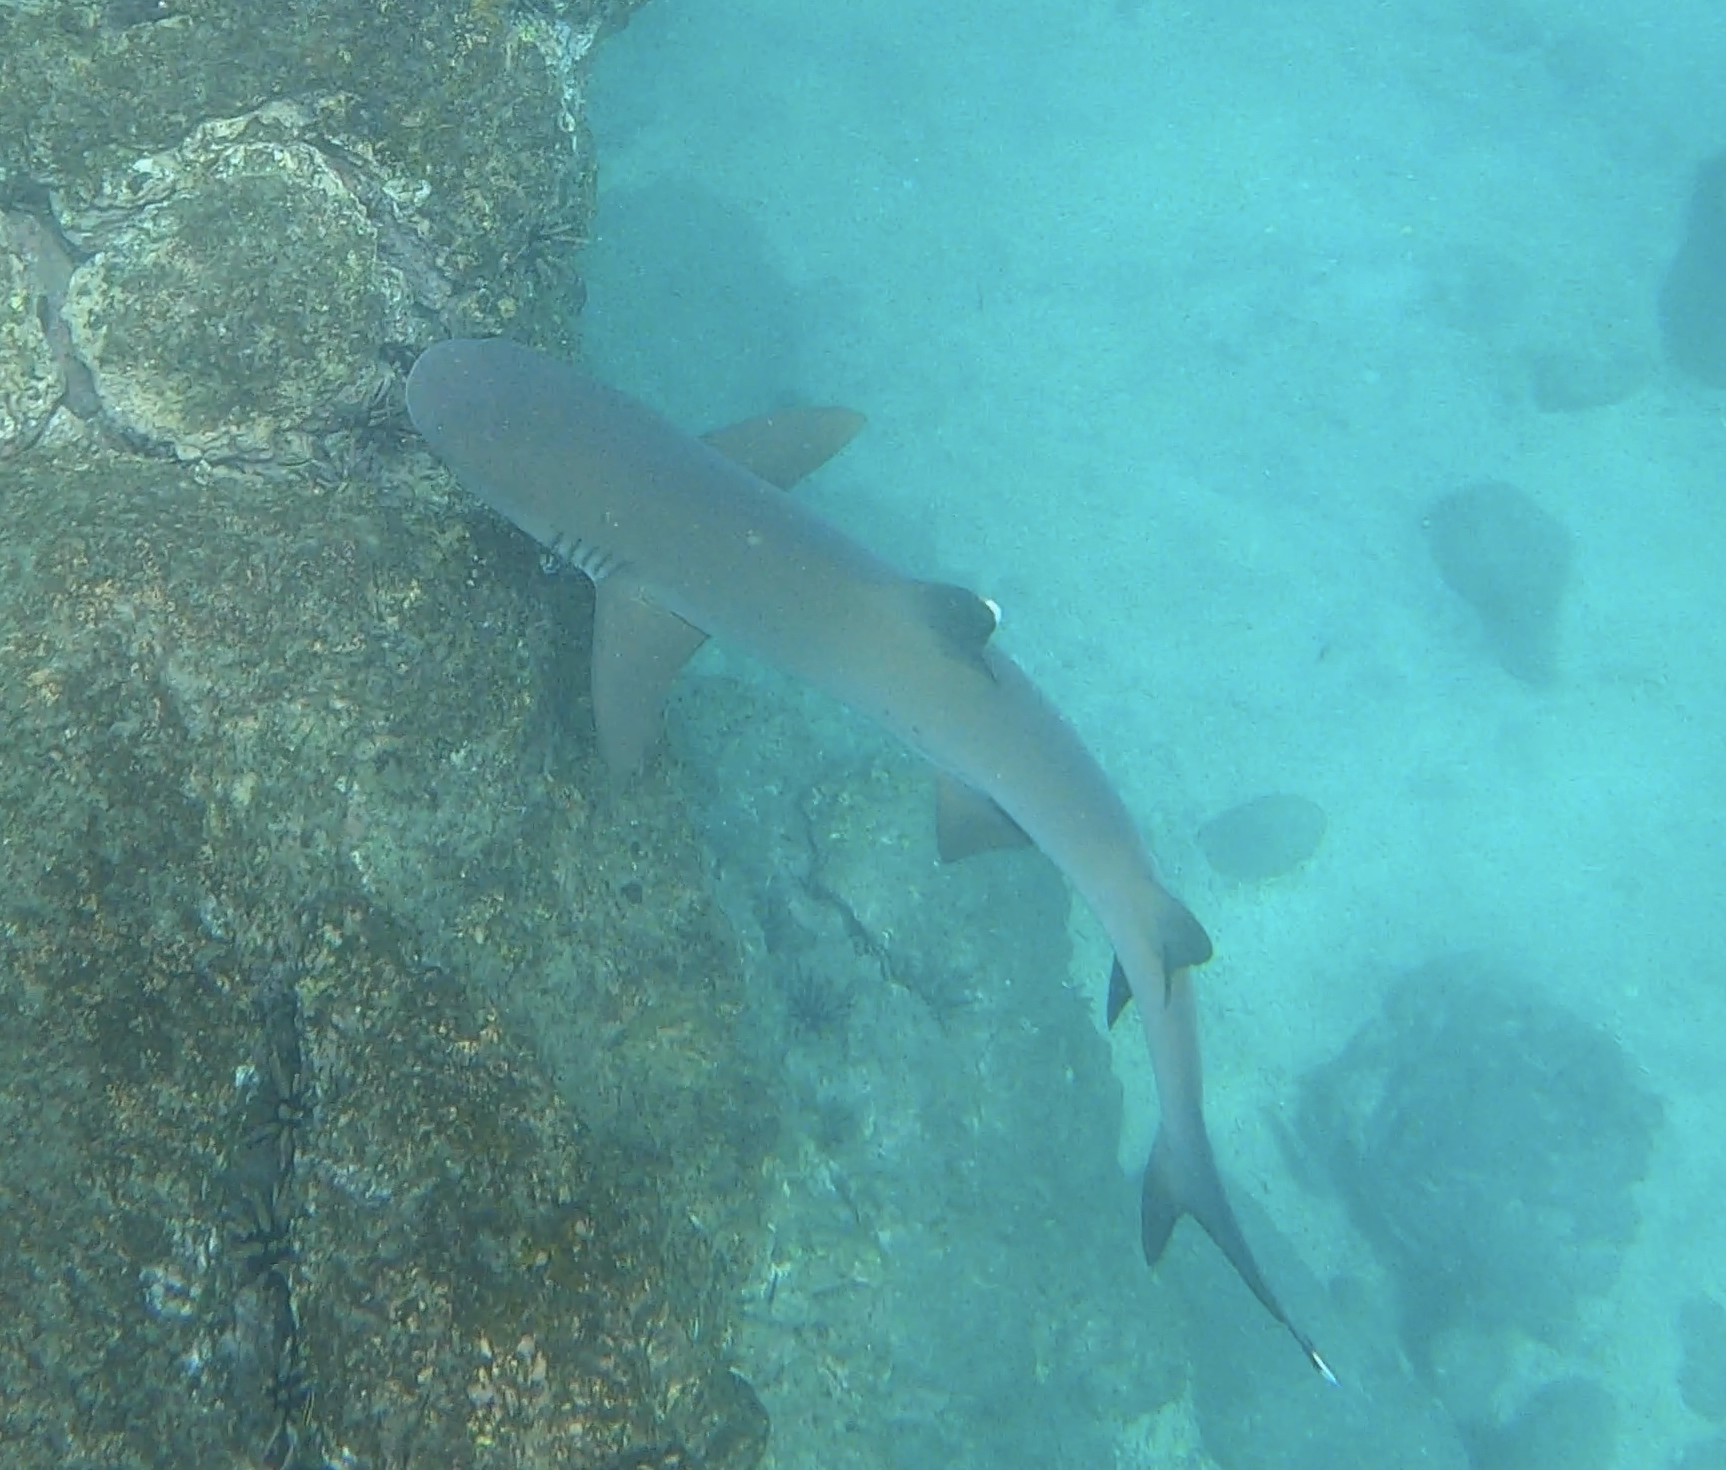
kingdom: Animalia
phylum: Chordata
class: Elasmobranchii
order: Carcharhiniformes
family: Carcharhinidae
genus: Triaenodon
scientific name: Triaenodon obesus
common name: Whitetip reef shark
